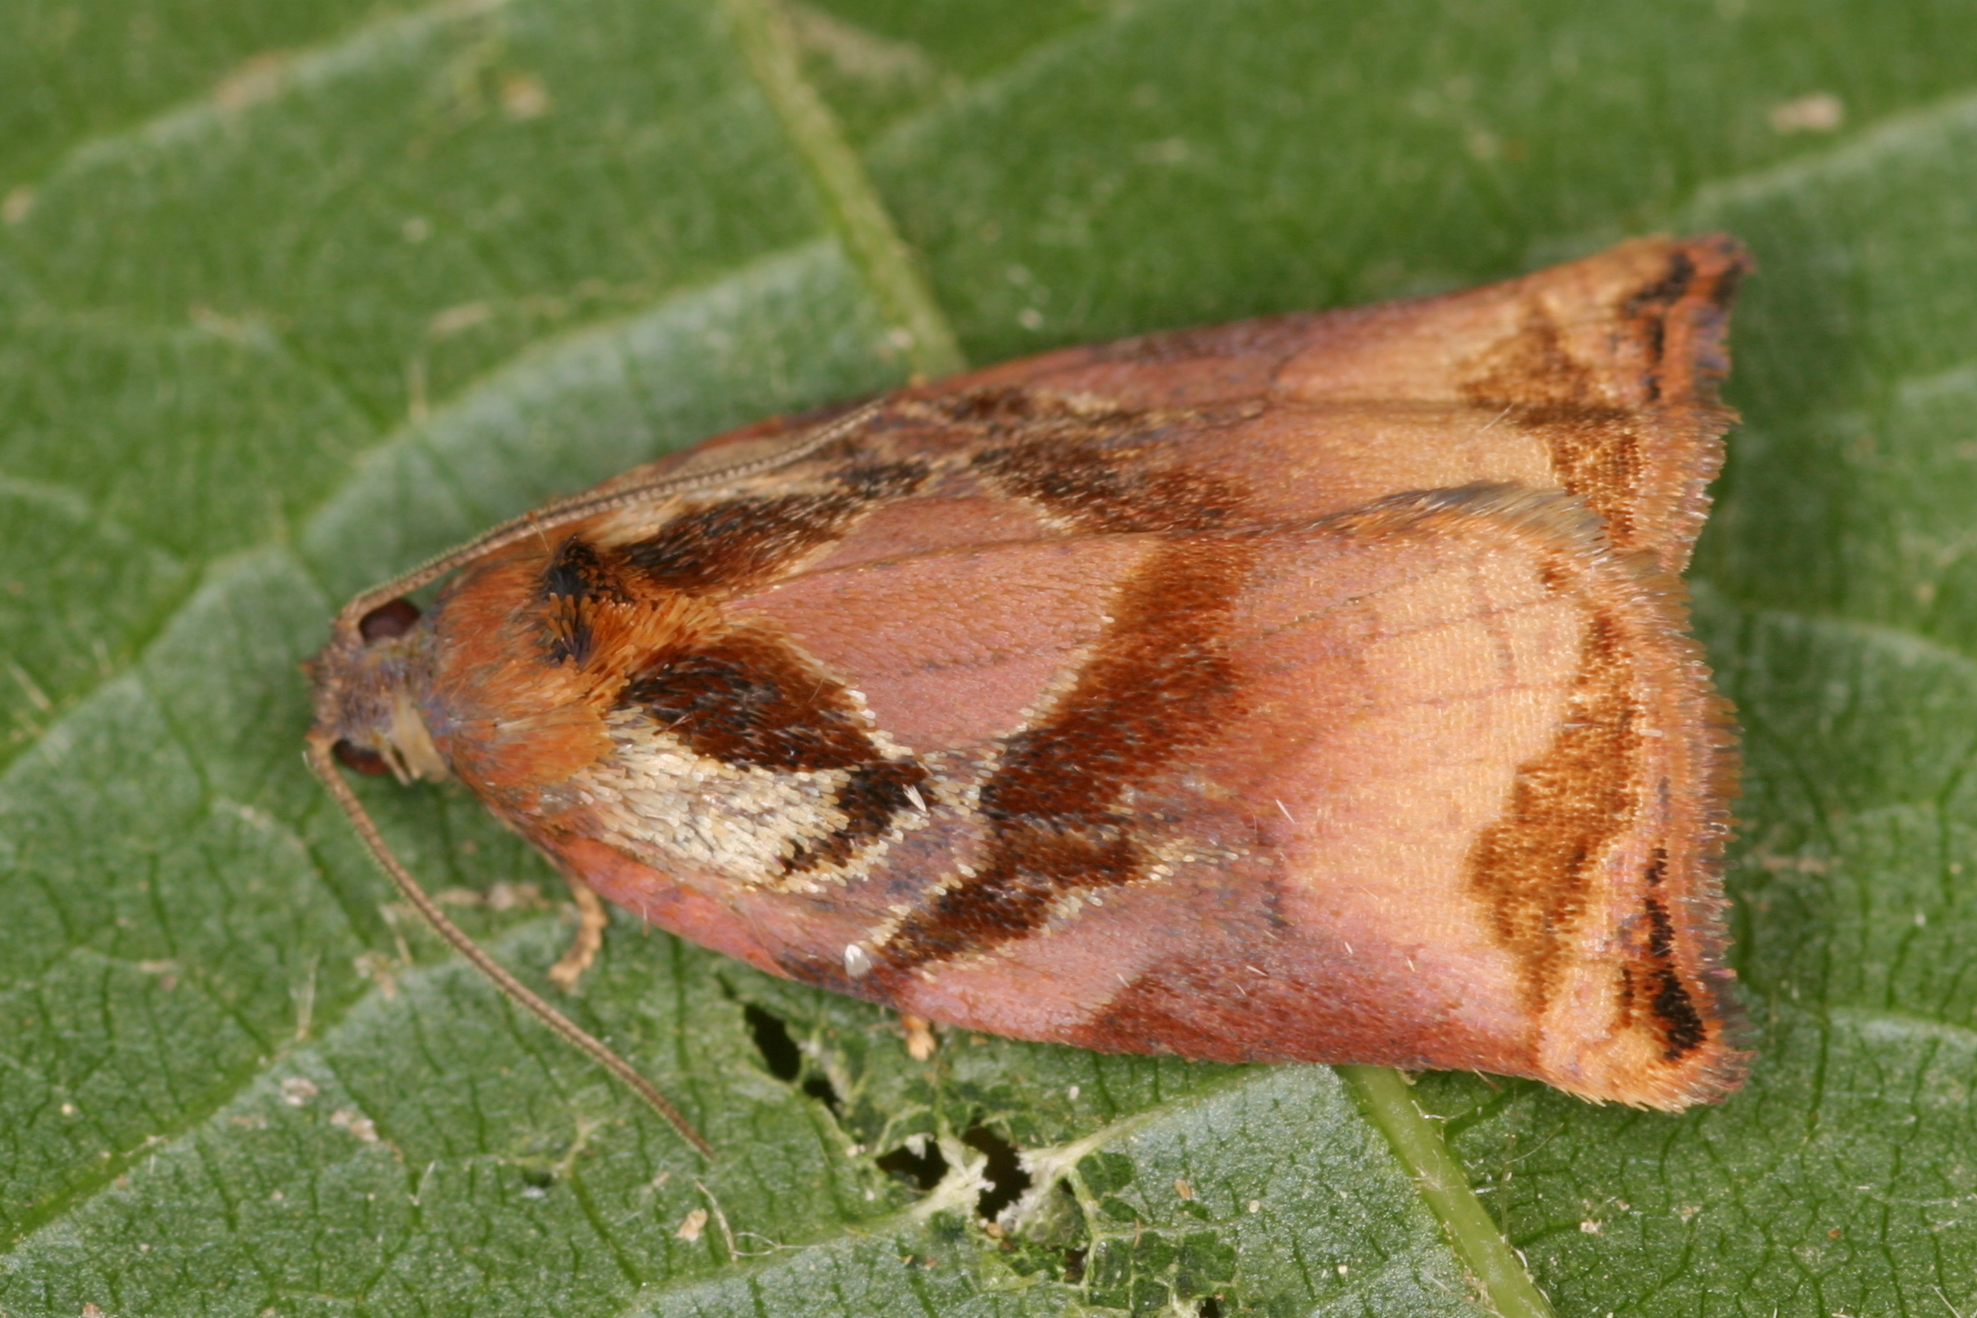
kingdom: Animalia
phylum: Arthropoda
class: Insecta
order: Lepidoptera
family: Tortricidae
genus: Archips
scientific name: Archips podana
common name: Large fruit-tree tortrix
